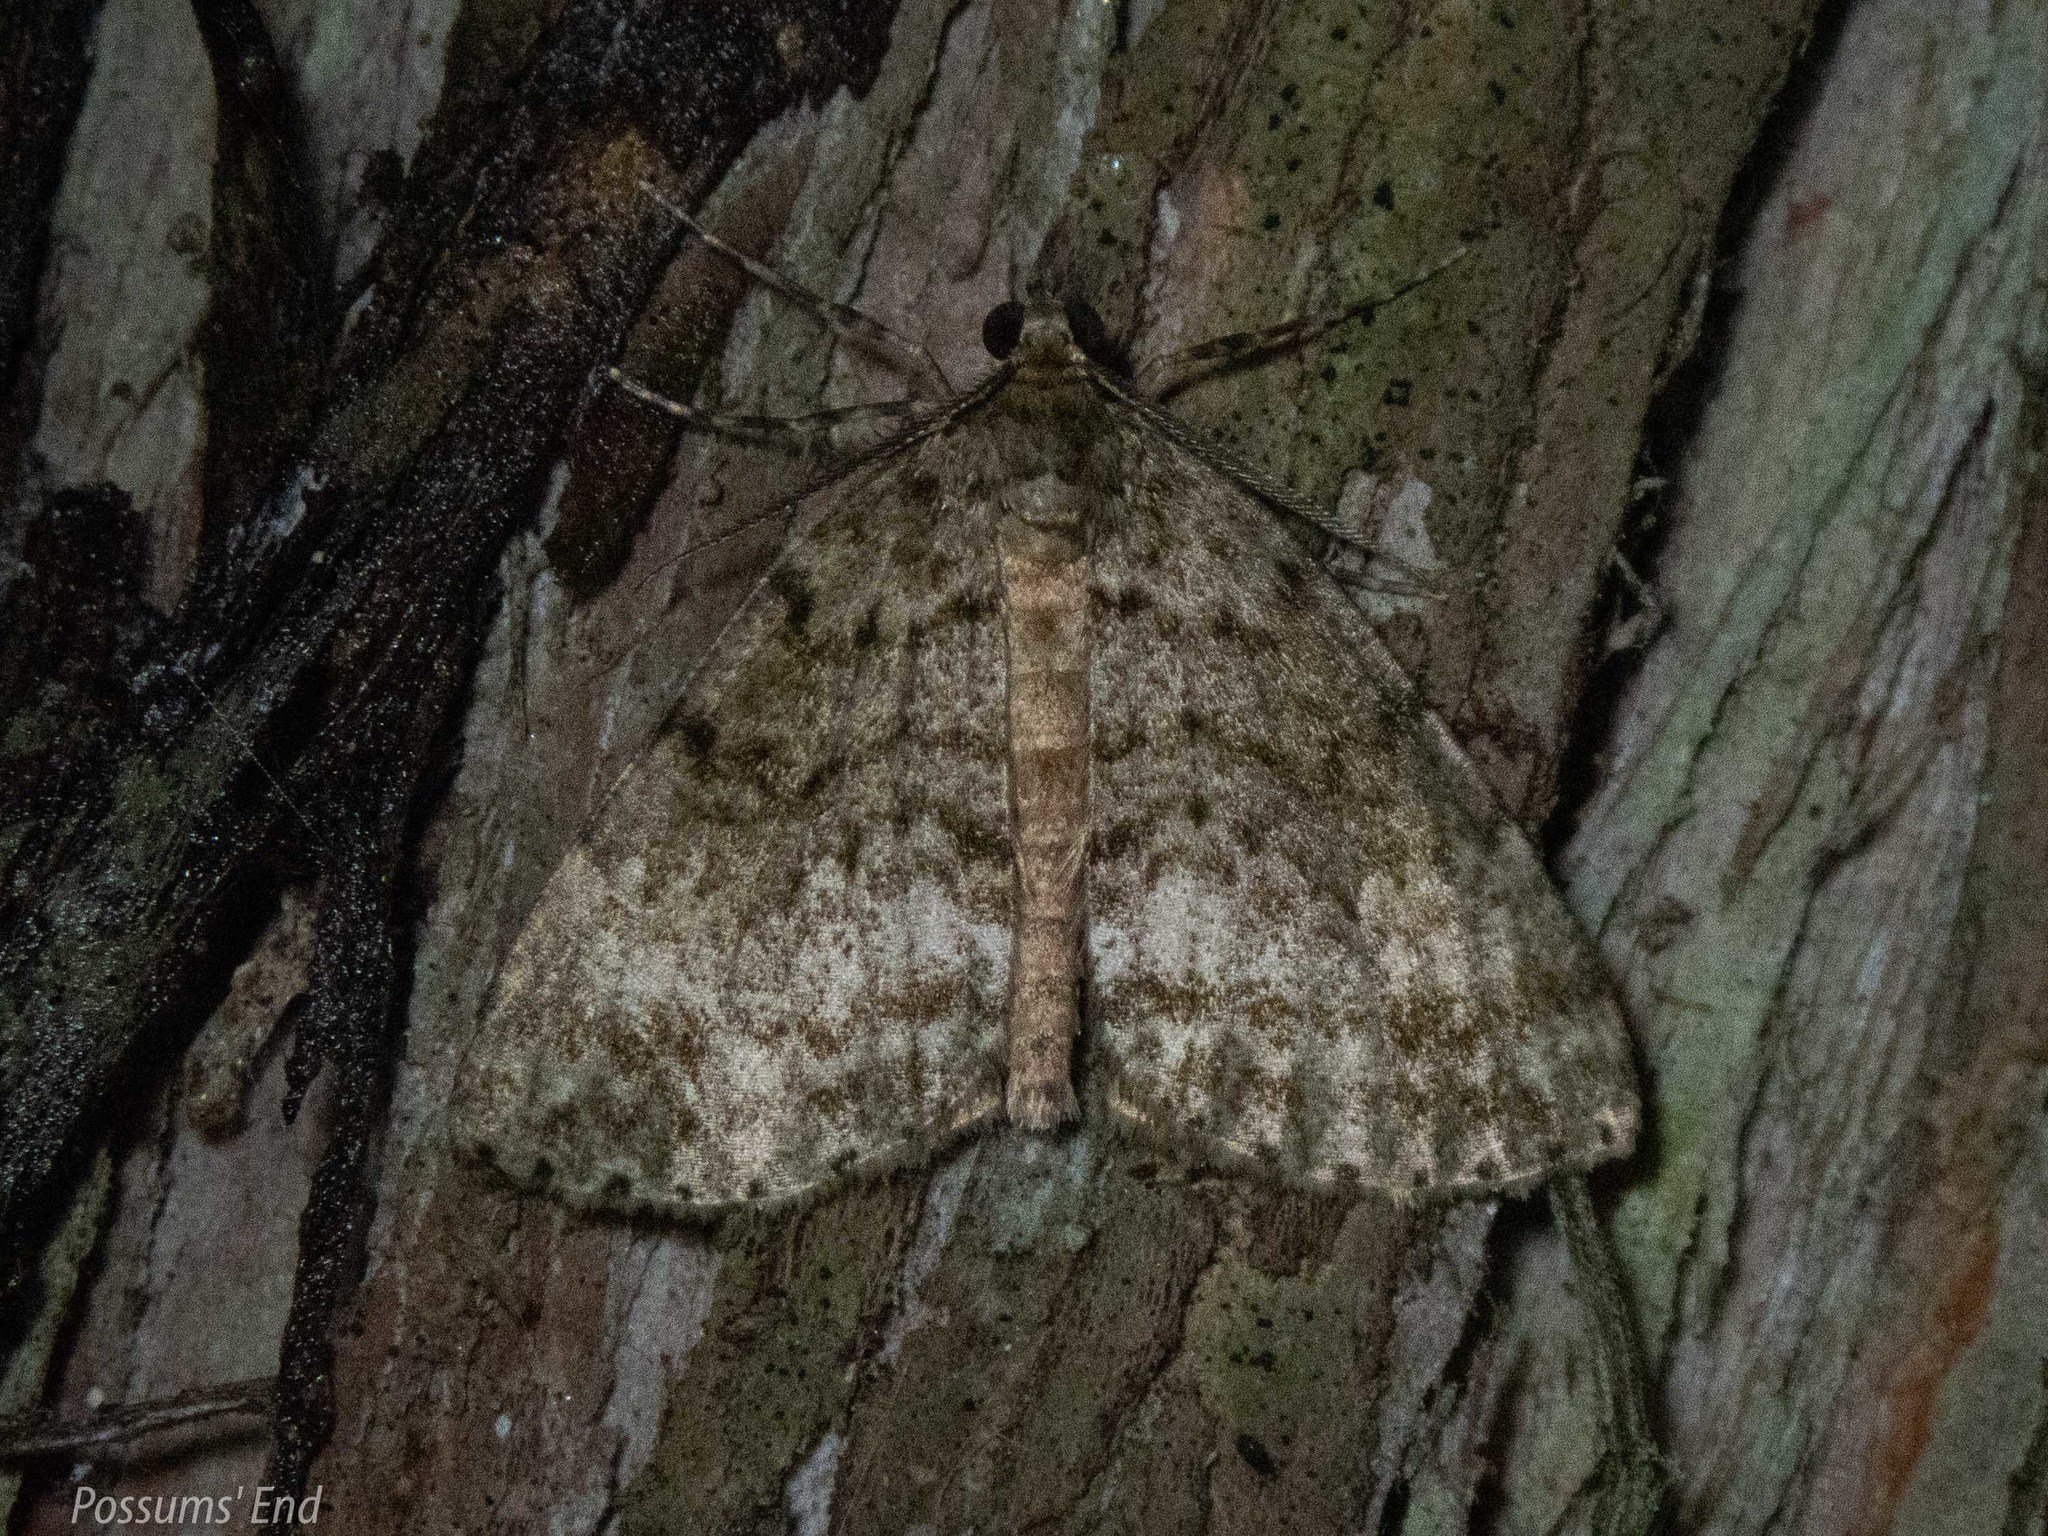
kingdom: Animalia
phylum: Arthropoda
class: Insecta
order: Lepidoptera
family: Geometridae
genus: Pseudocoremia
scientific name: Pseudocoremia indistincta
